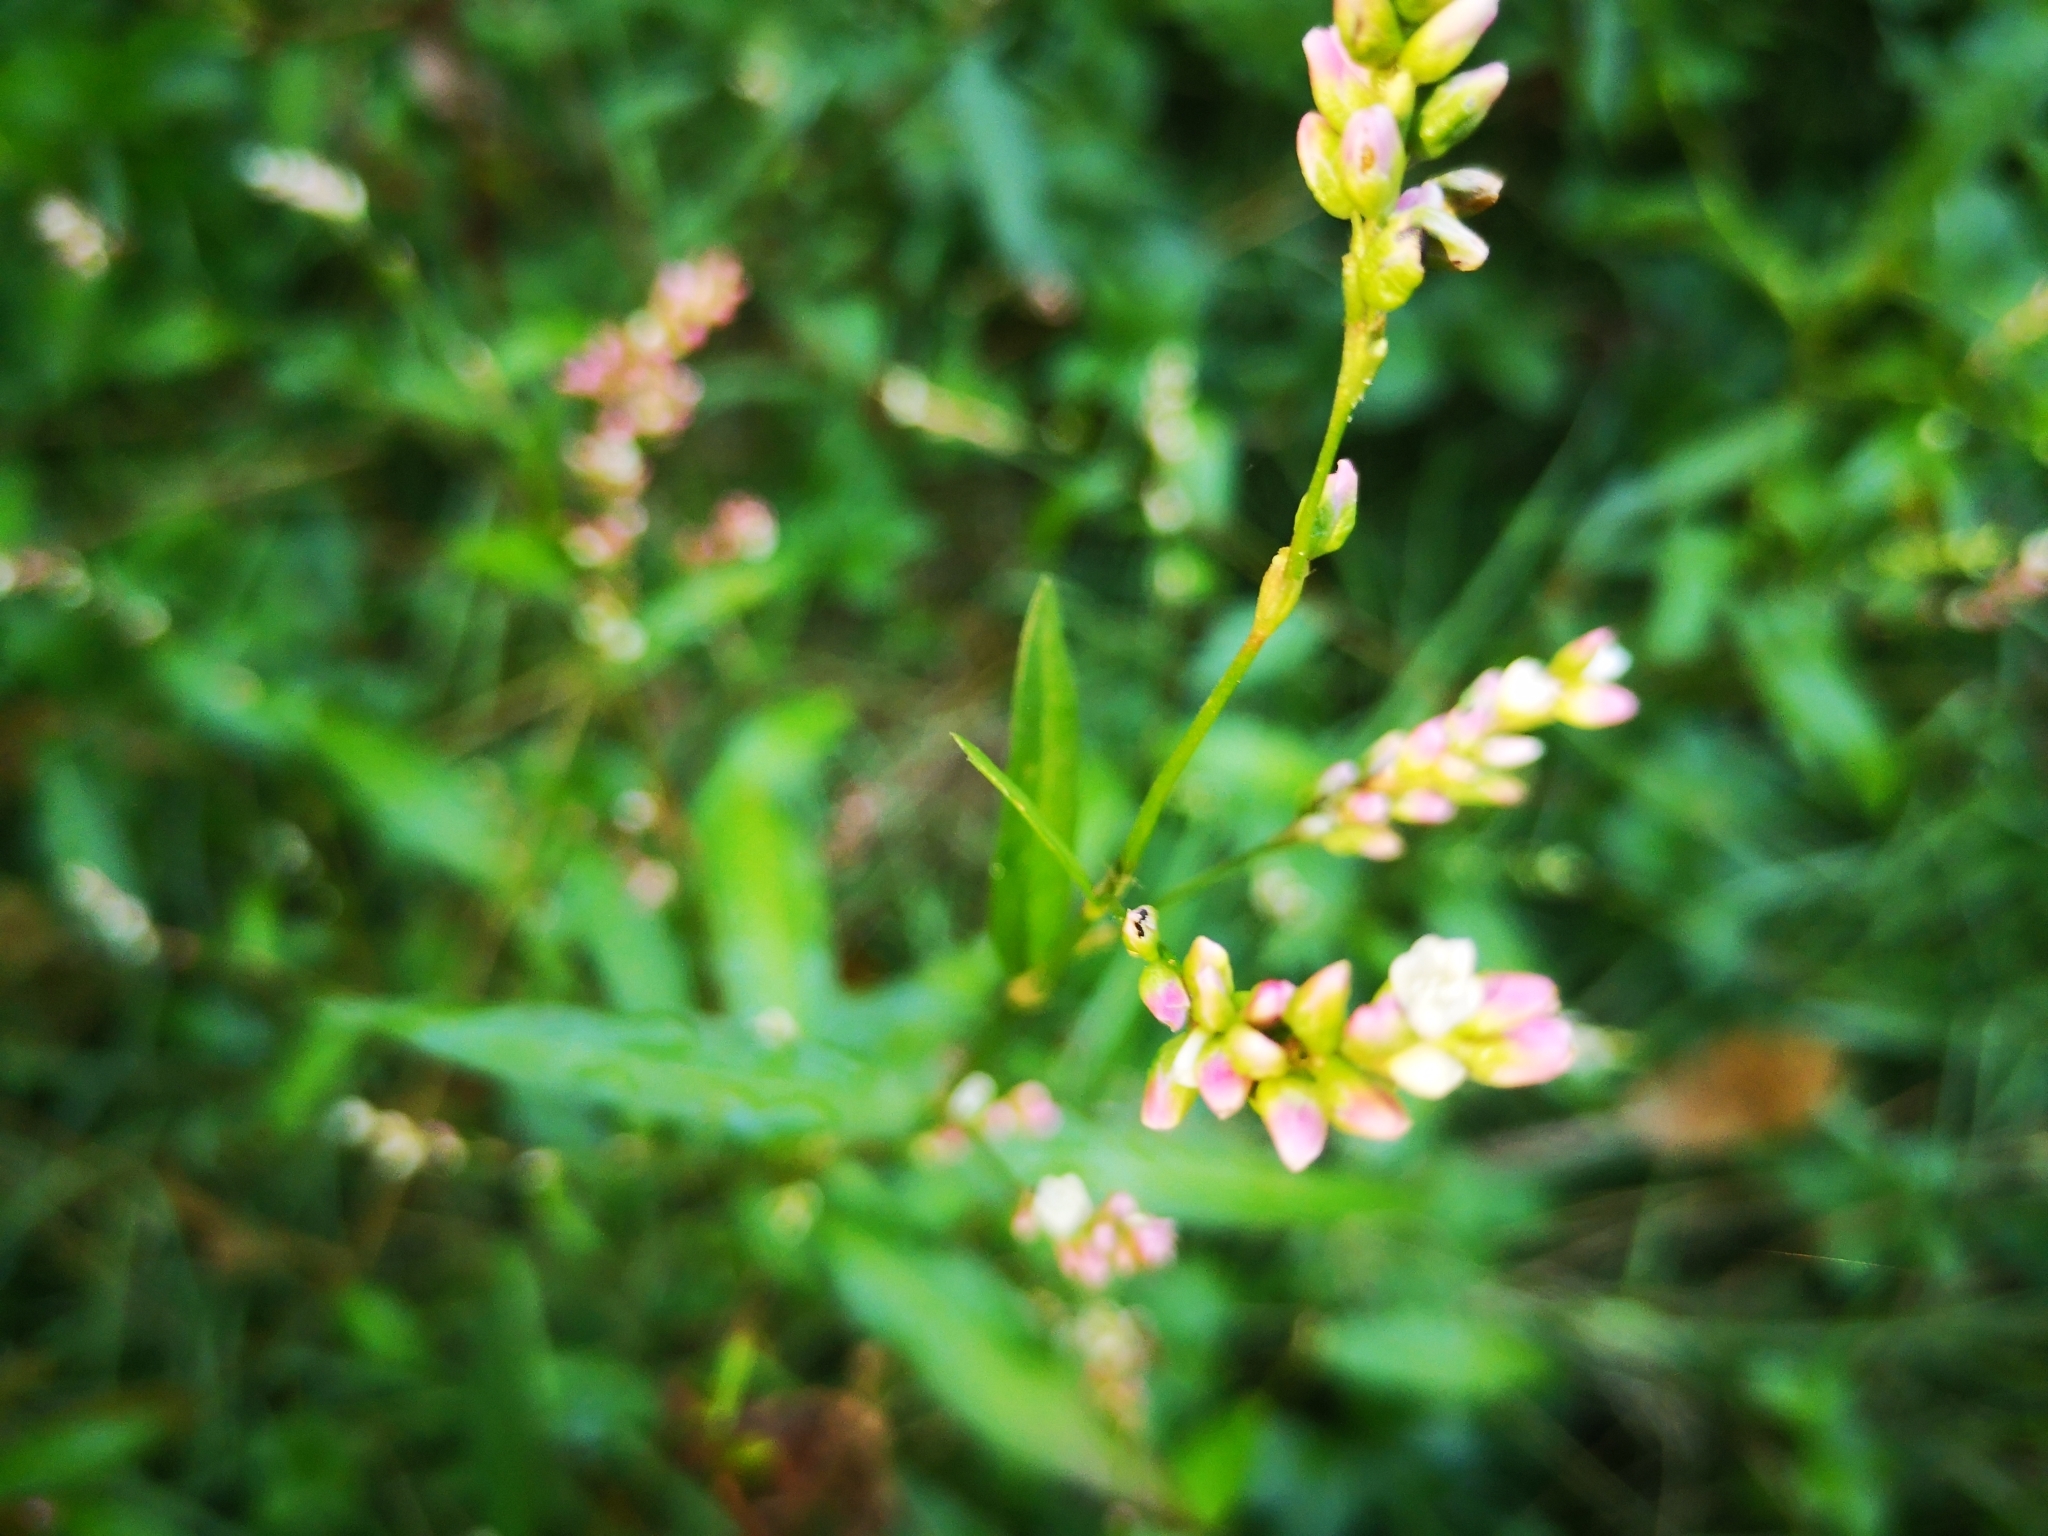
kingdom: Plantae
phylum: Tracheophyta
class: Magnoliopsida
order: Caryophyllales
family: Polygonaceae
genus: Persicaria
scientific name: Persicaria maculosa
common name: Redshank
